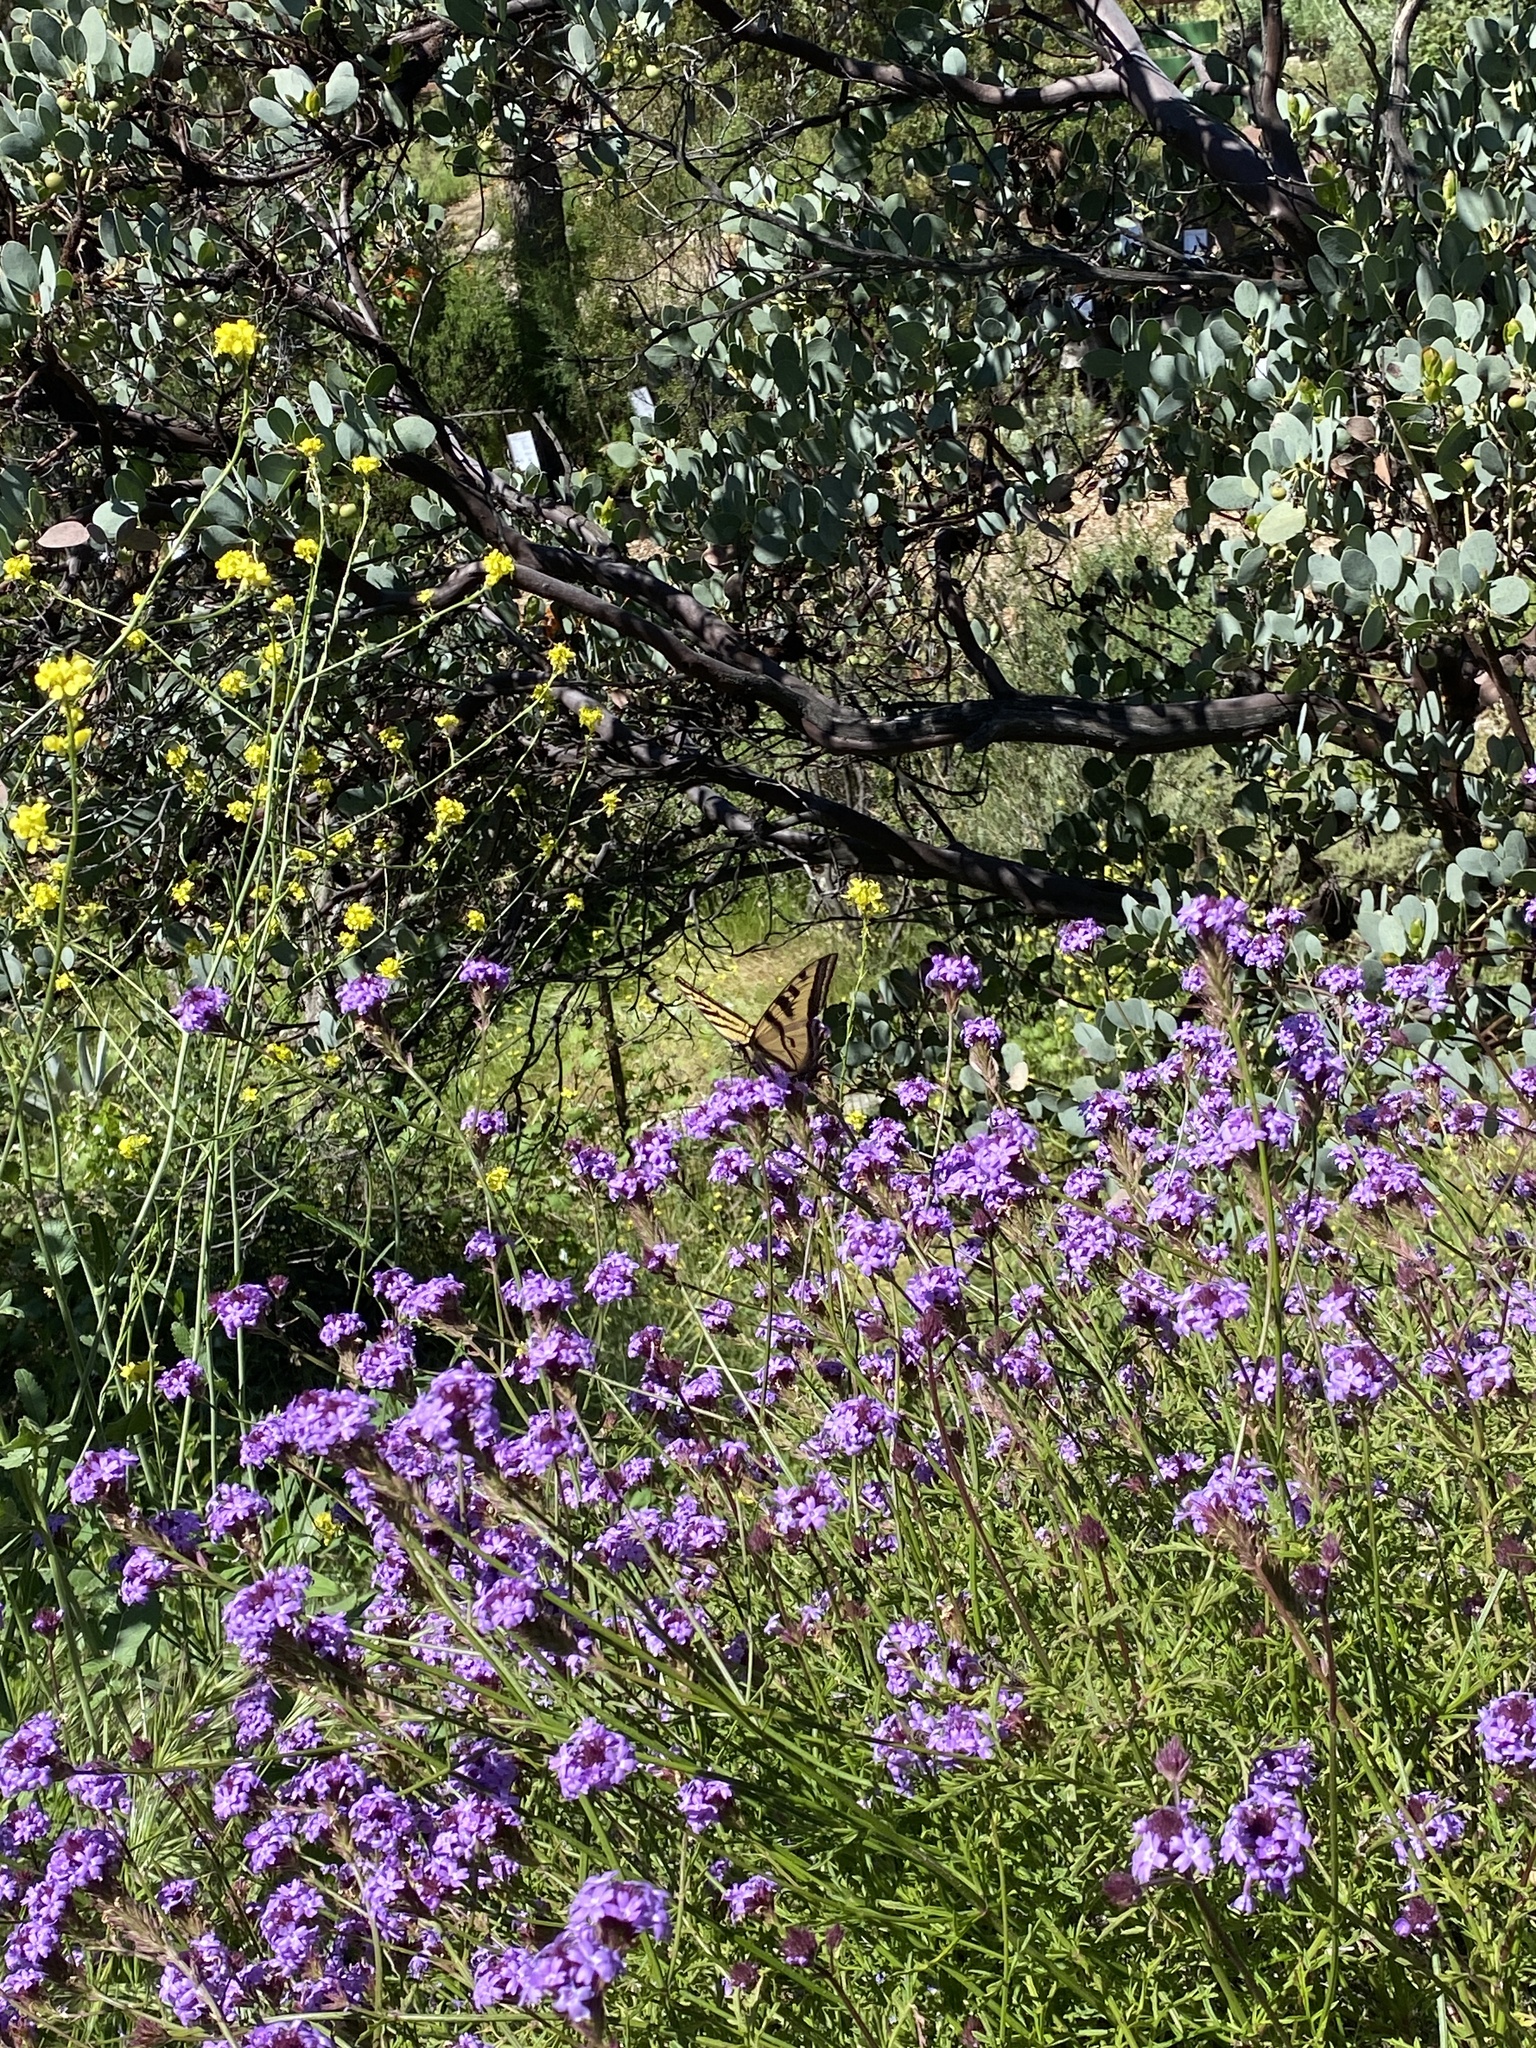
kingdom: Animalia
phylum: Arthropoda
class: Insecta
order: Lepidoptera
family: Papilionidae
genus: Papilio
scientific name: Papilio rutulus
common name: Western tiger swallowtail
